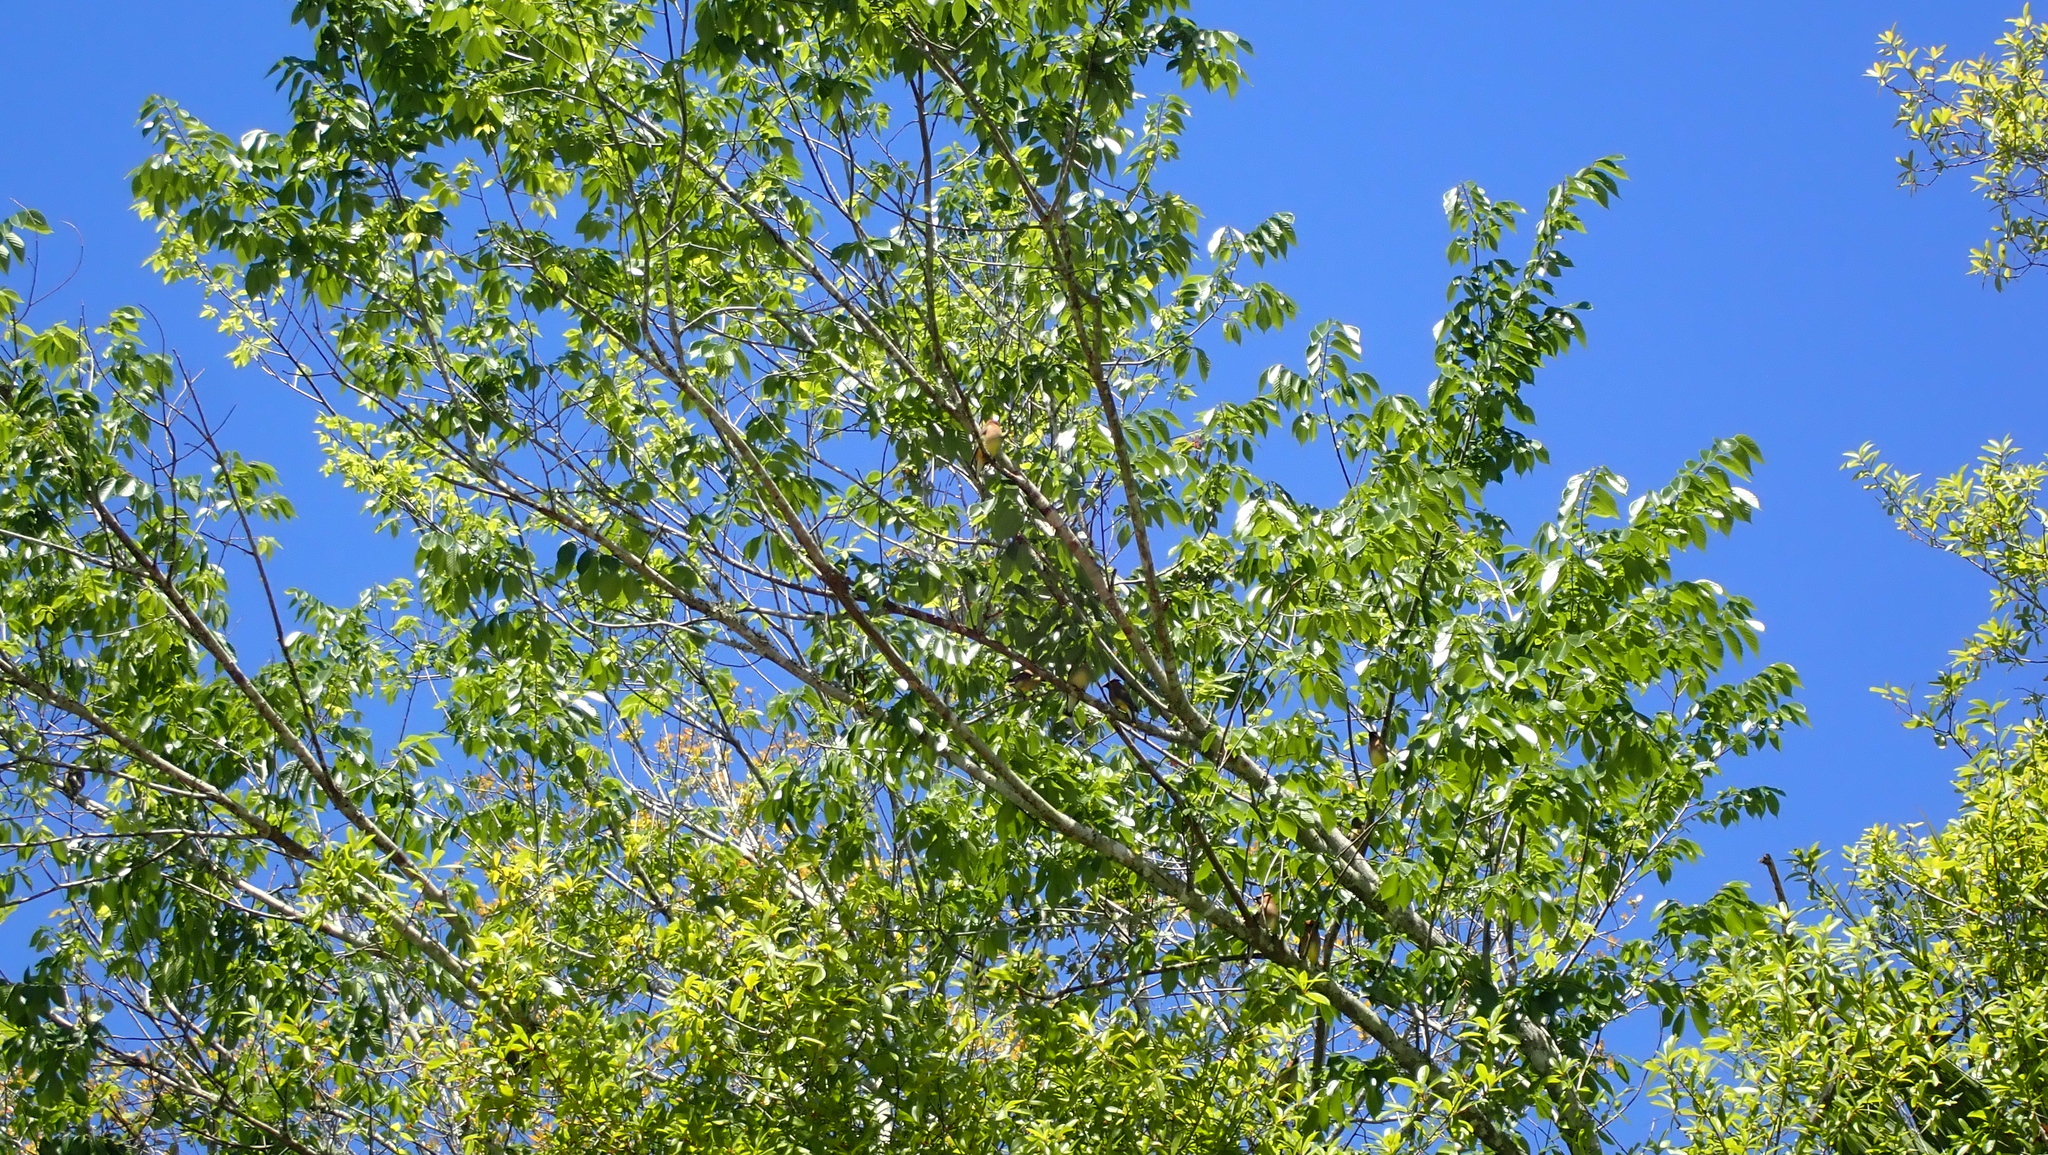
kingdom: Animalia
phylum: Chordata
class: Aves
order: Passeriformes
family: Bombycillidae
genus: Bombycilla
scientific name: Bombycilla cedrorum
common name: Cedar waxwing
